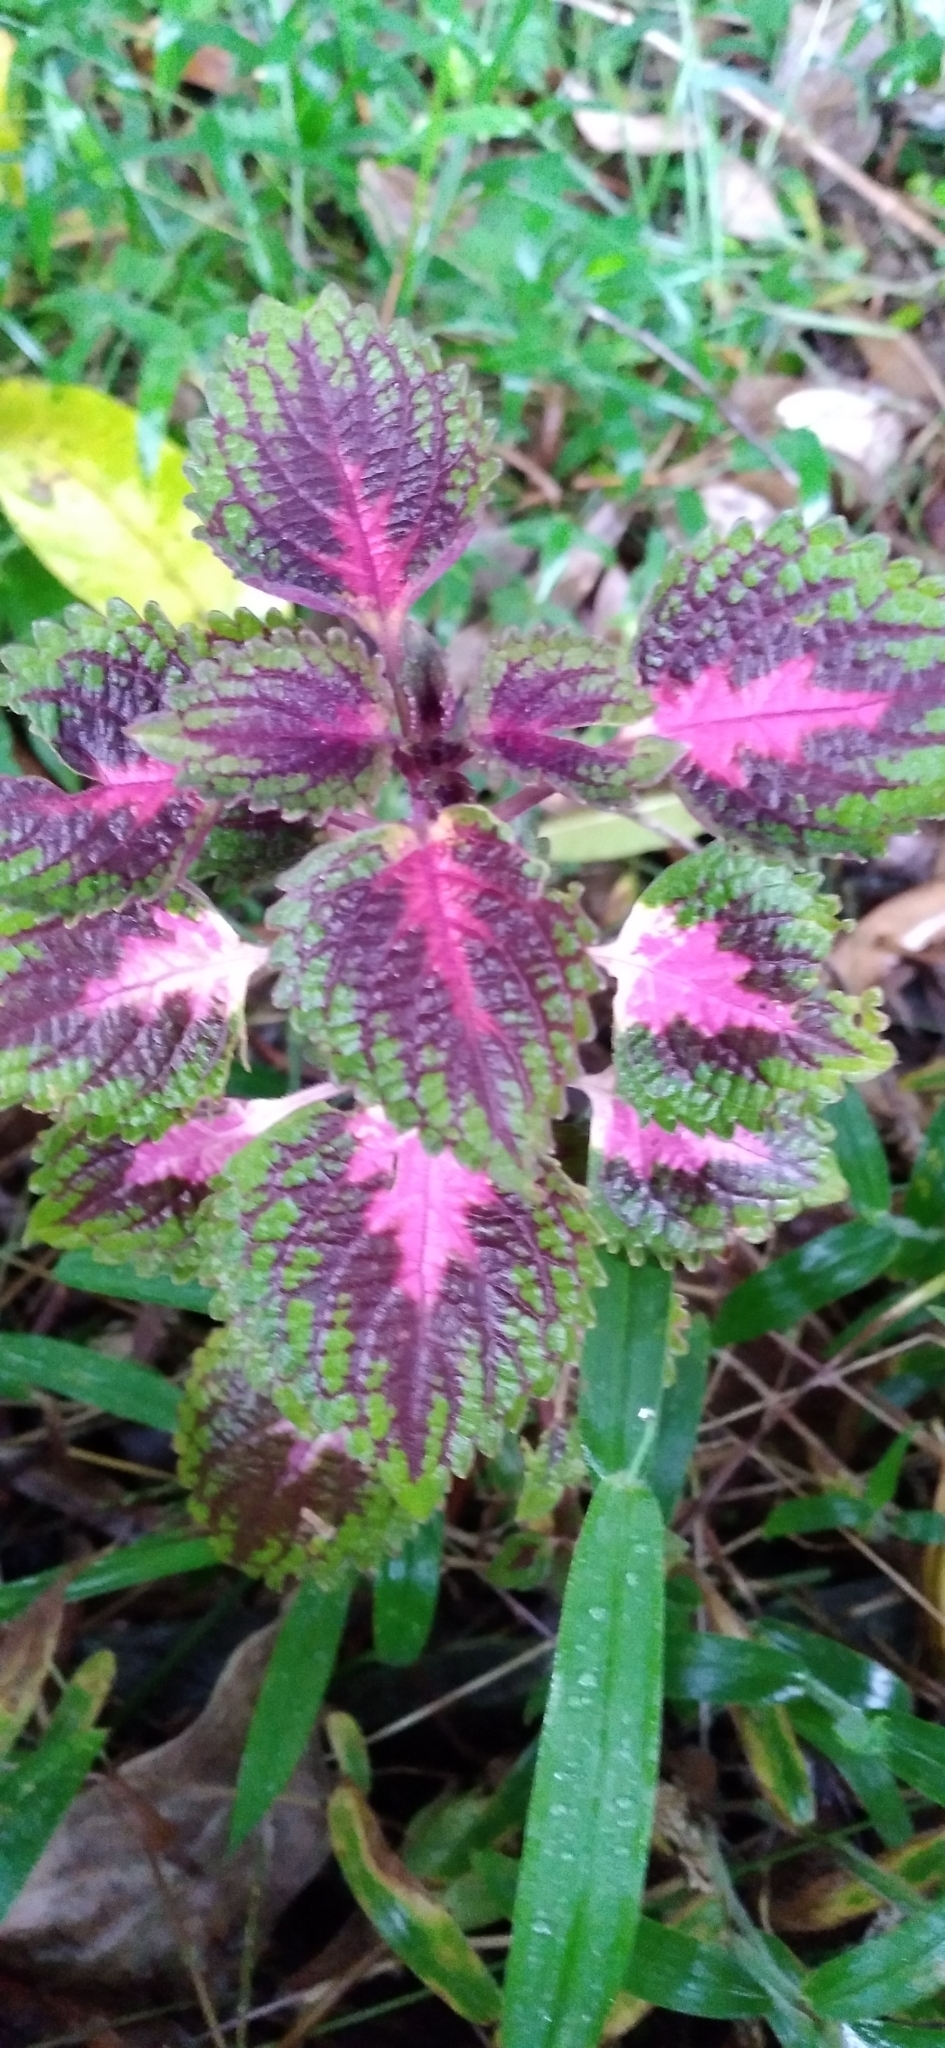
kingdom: Plantae
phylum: Tracheophyta
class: Magnoliopsida
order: Lamiales
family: Lamiaceae
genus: Coleus
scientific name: Coleus scutellarioides
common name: Coleus
